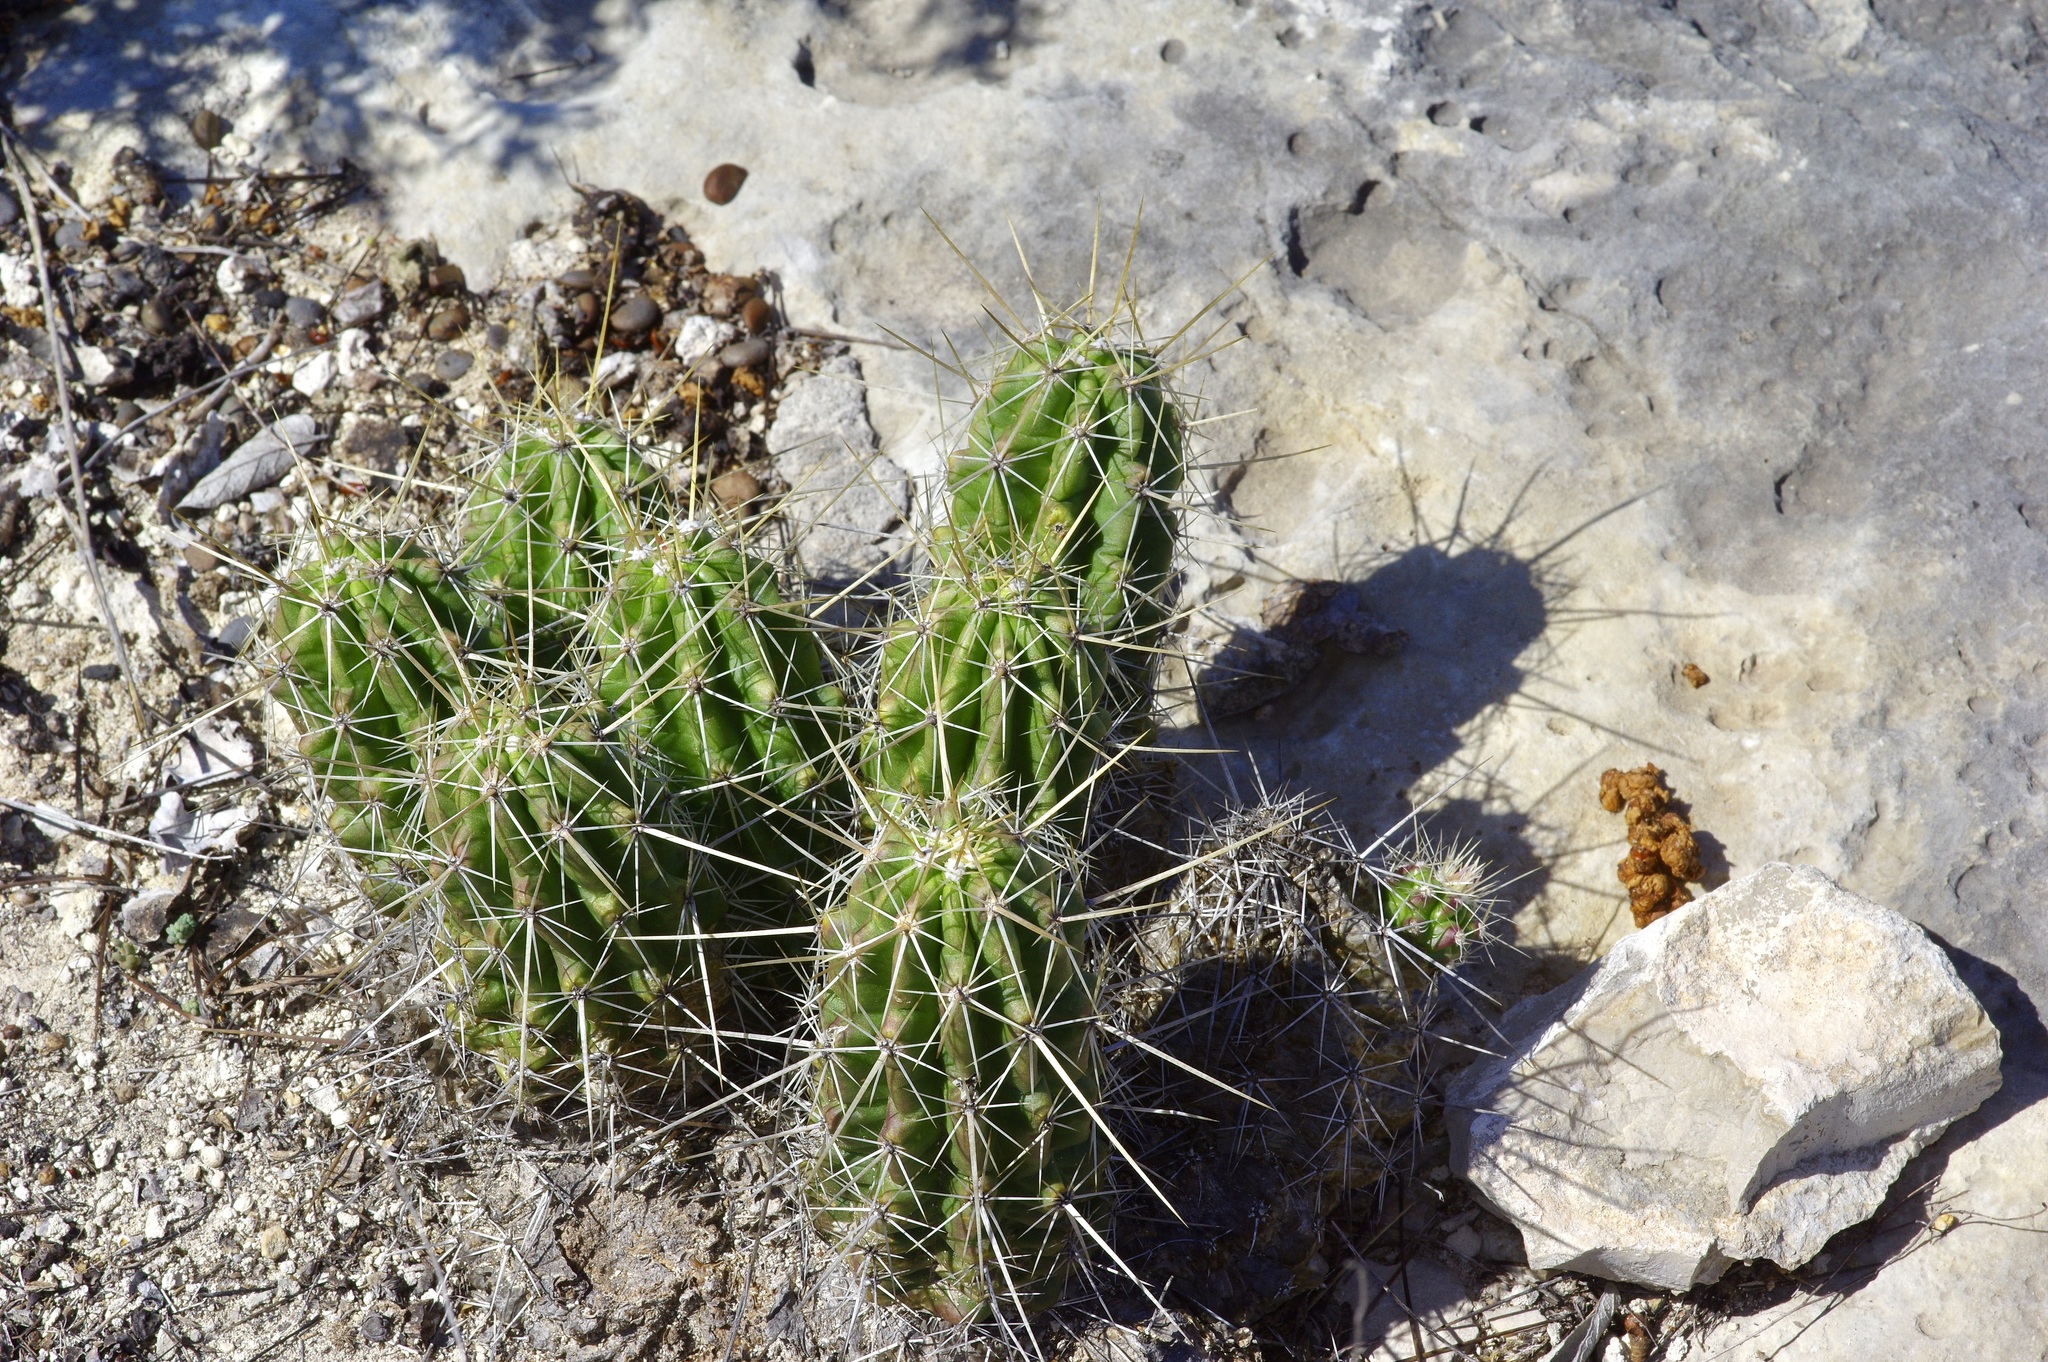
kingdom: Plantae
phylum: Tracheophyta
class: Magnoliopsida
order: Caryophyllales
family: Cactaceae
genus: Echinocereus
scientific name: Echinocereus enneacanthus
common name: Pitaya
